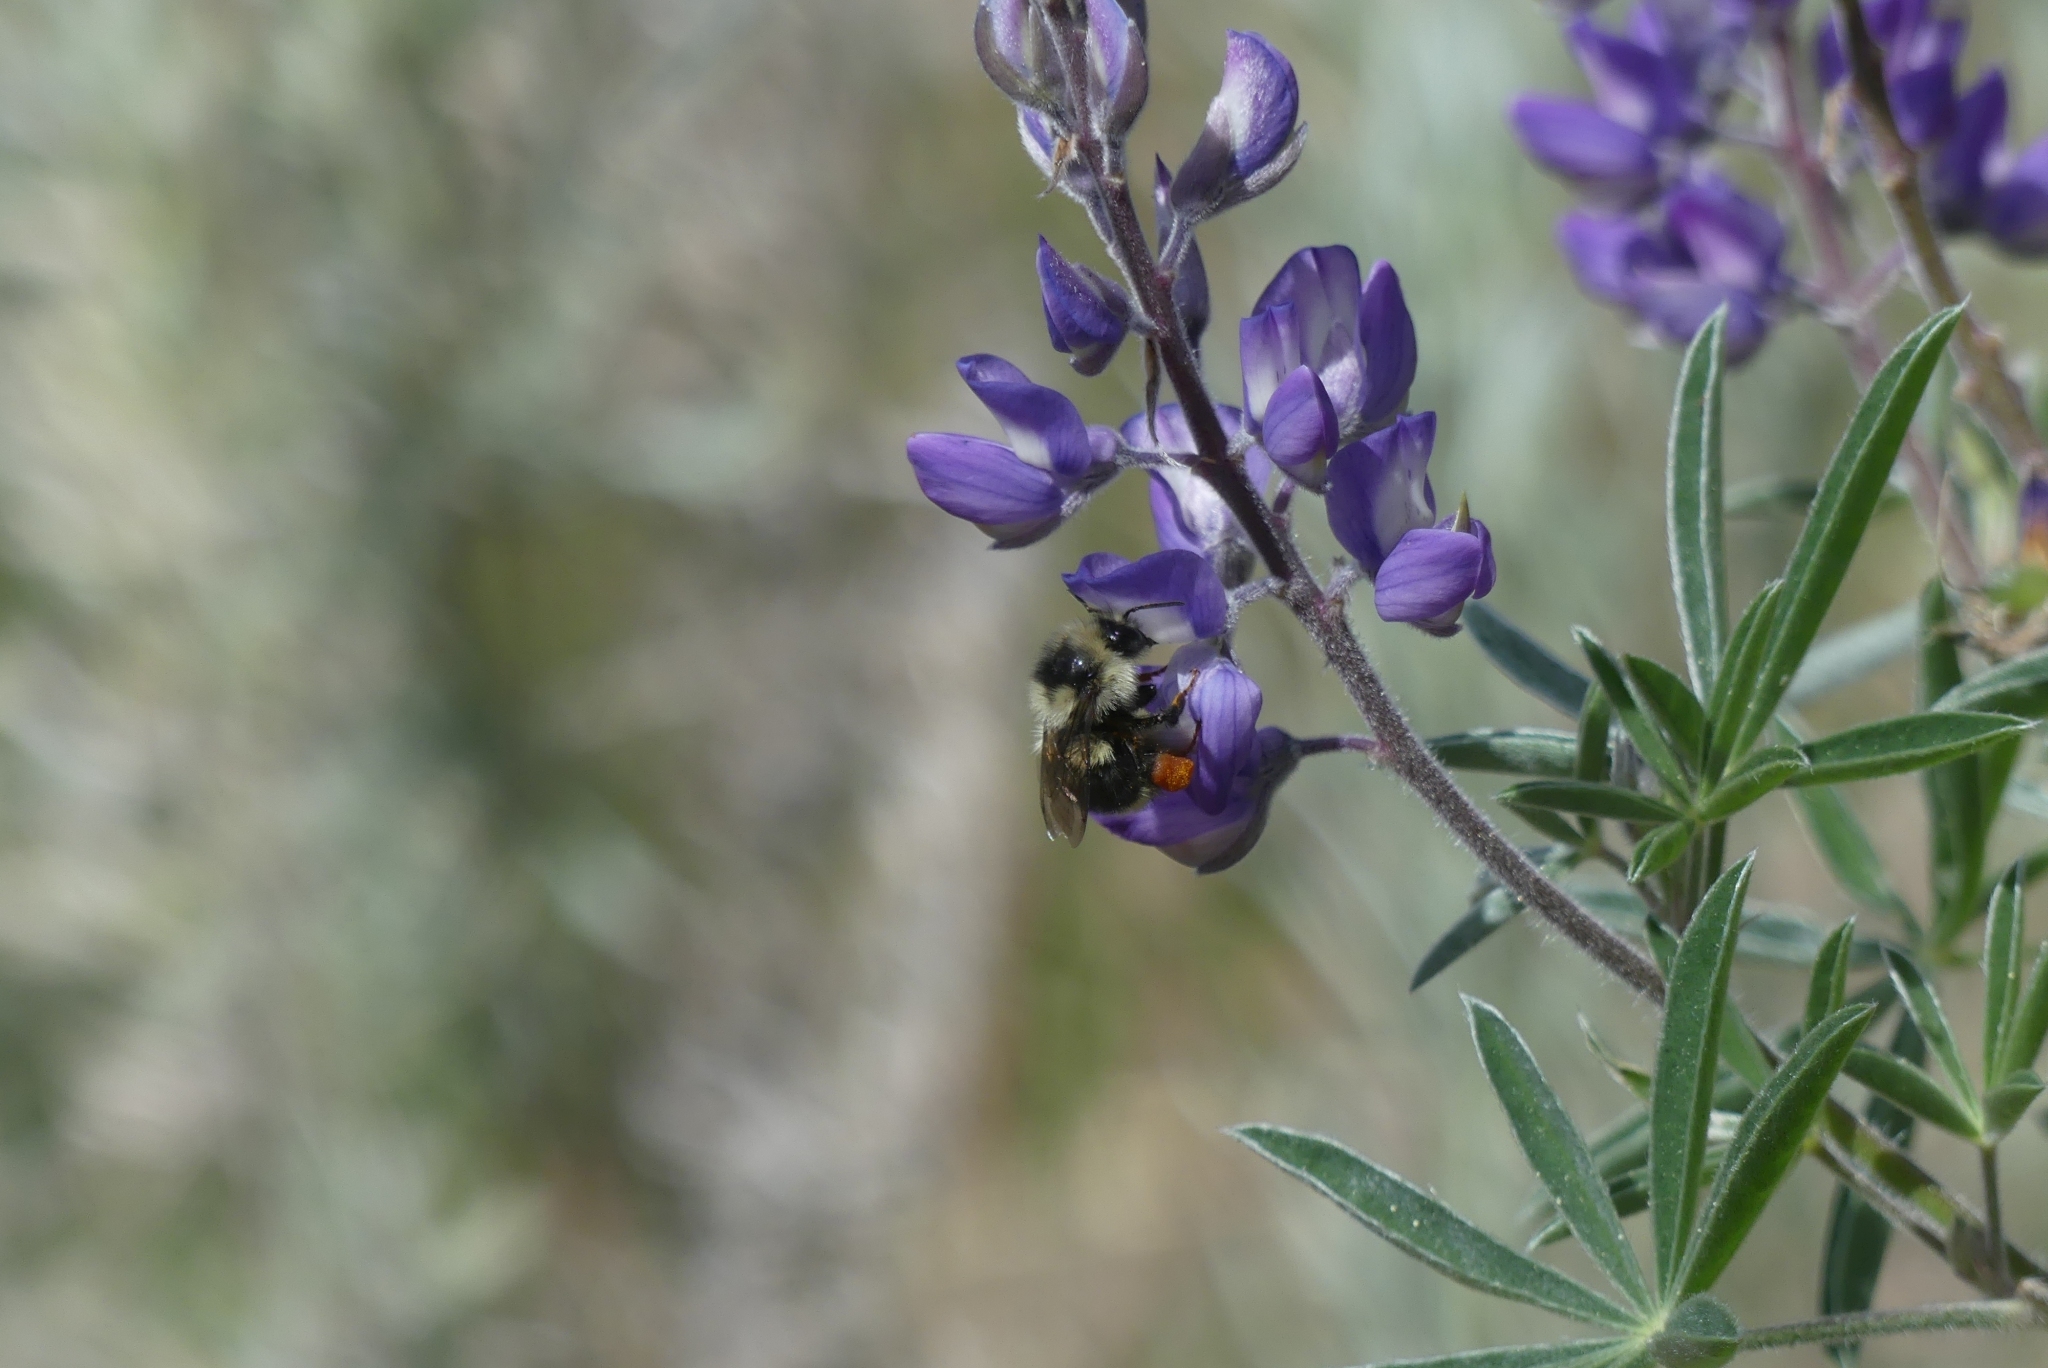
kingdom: Animalia
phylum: Arthropoda
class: Insecta
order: Hymenoptera
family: Apidae
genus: Bombus
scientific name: Bombus vancouverensis
